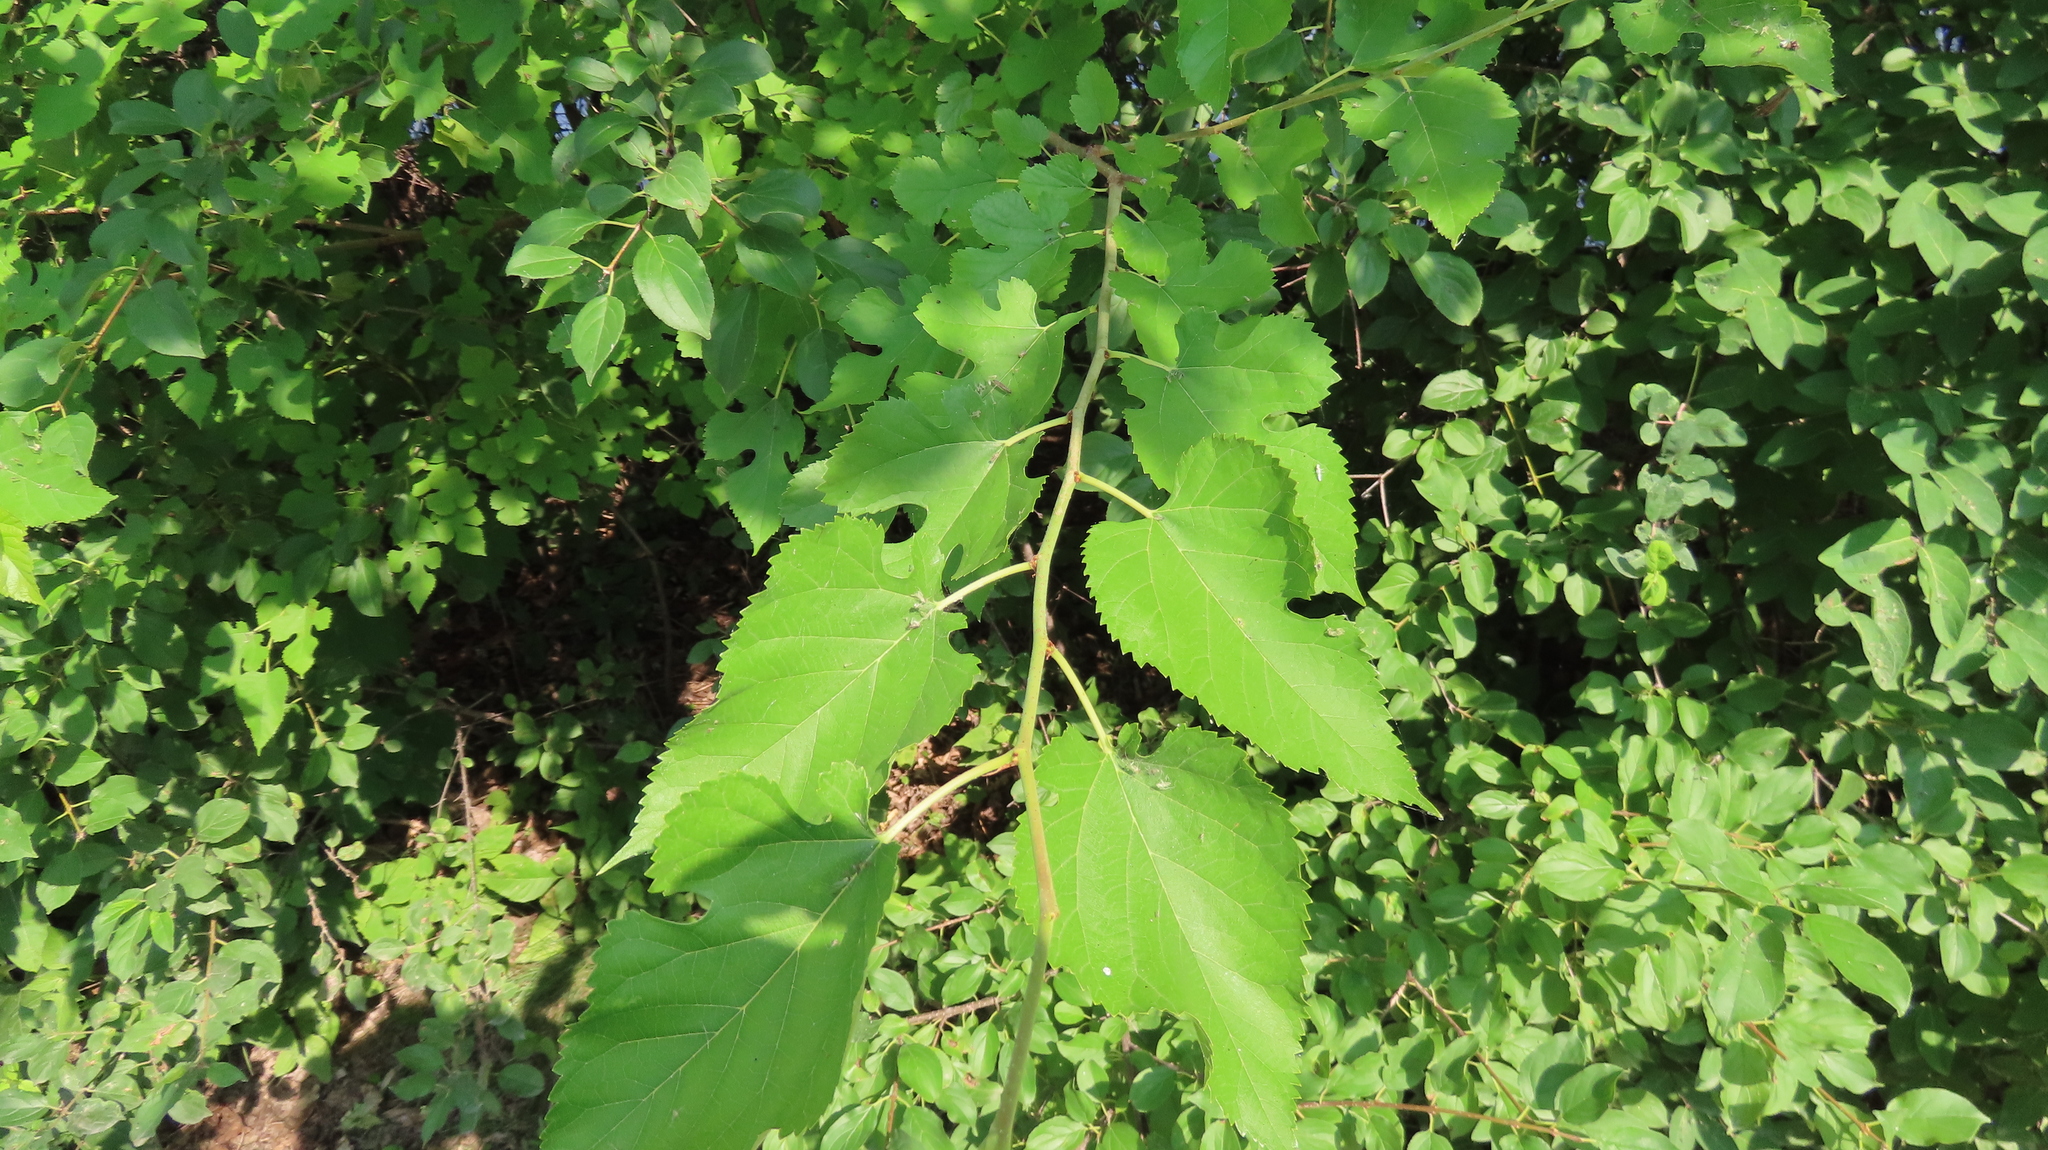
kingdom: Plantae
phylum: Tracheophyta
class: Magnoliopsida
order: Rosales
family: Moraceae
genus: Morus
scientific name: Morus alba
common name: White mulberry
